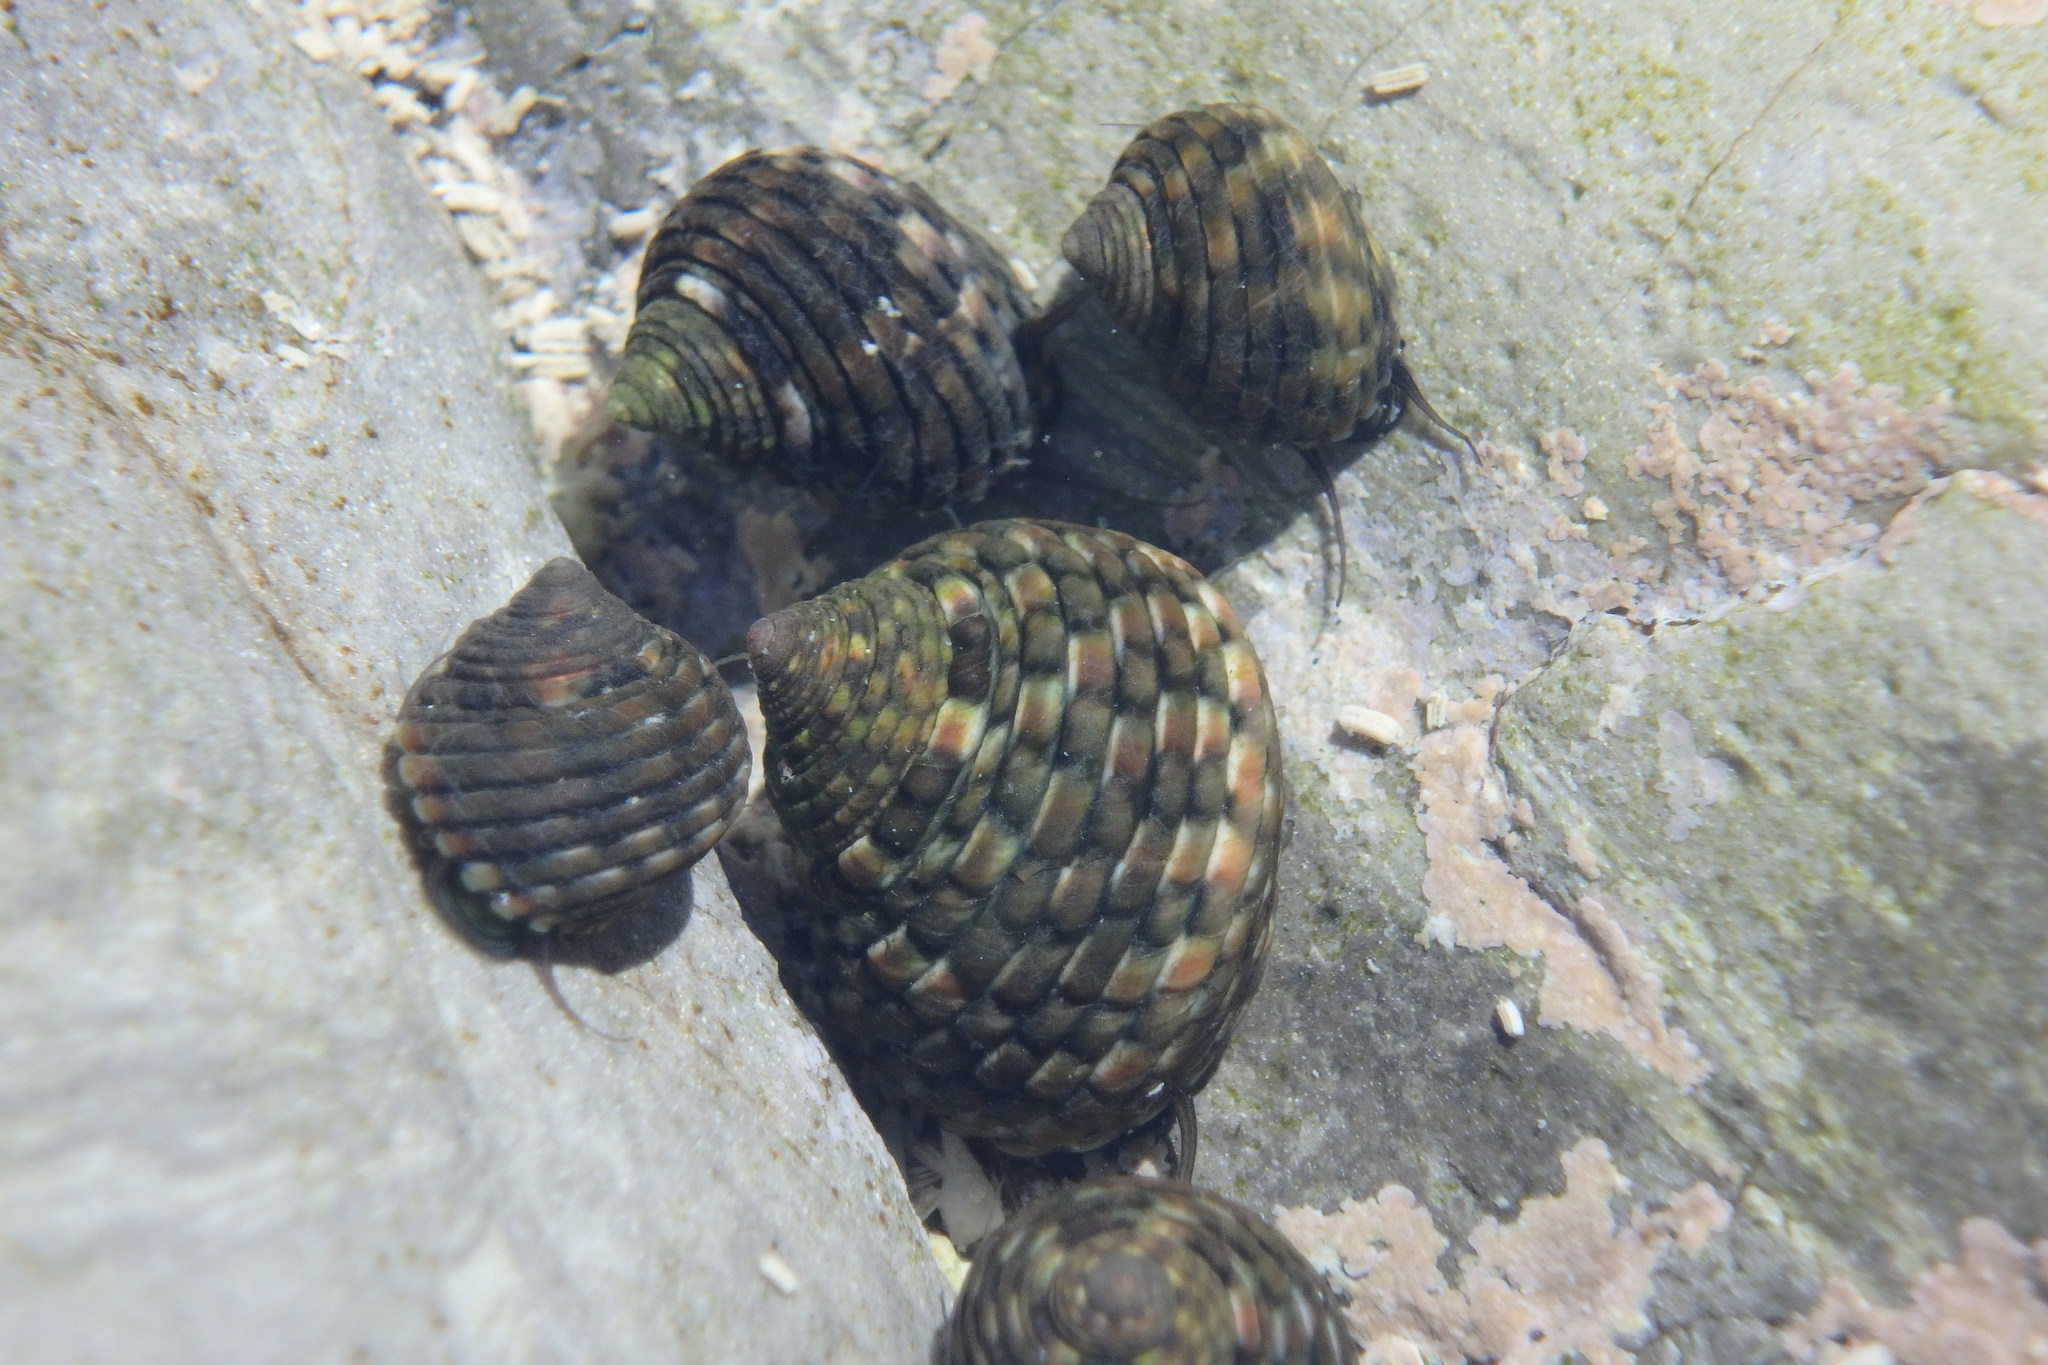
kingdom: Animalia
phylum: Mollusca
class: Gastropoda
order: Trochida
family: Trochidae
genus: Monodonta
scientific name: Monodonta confusa
